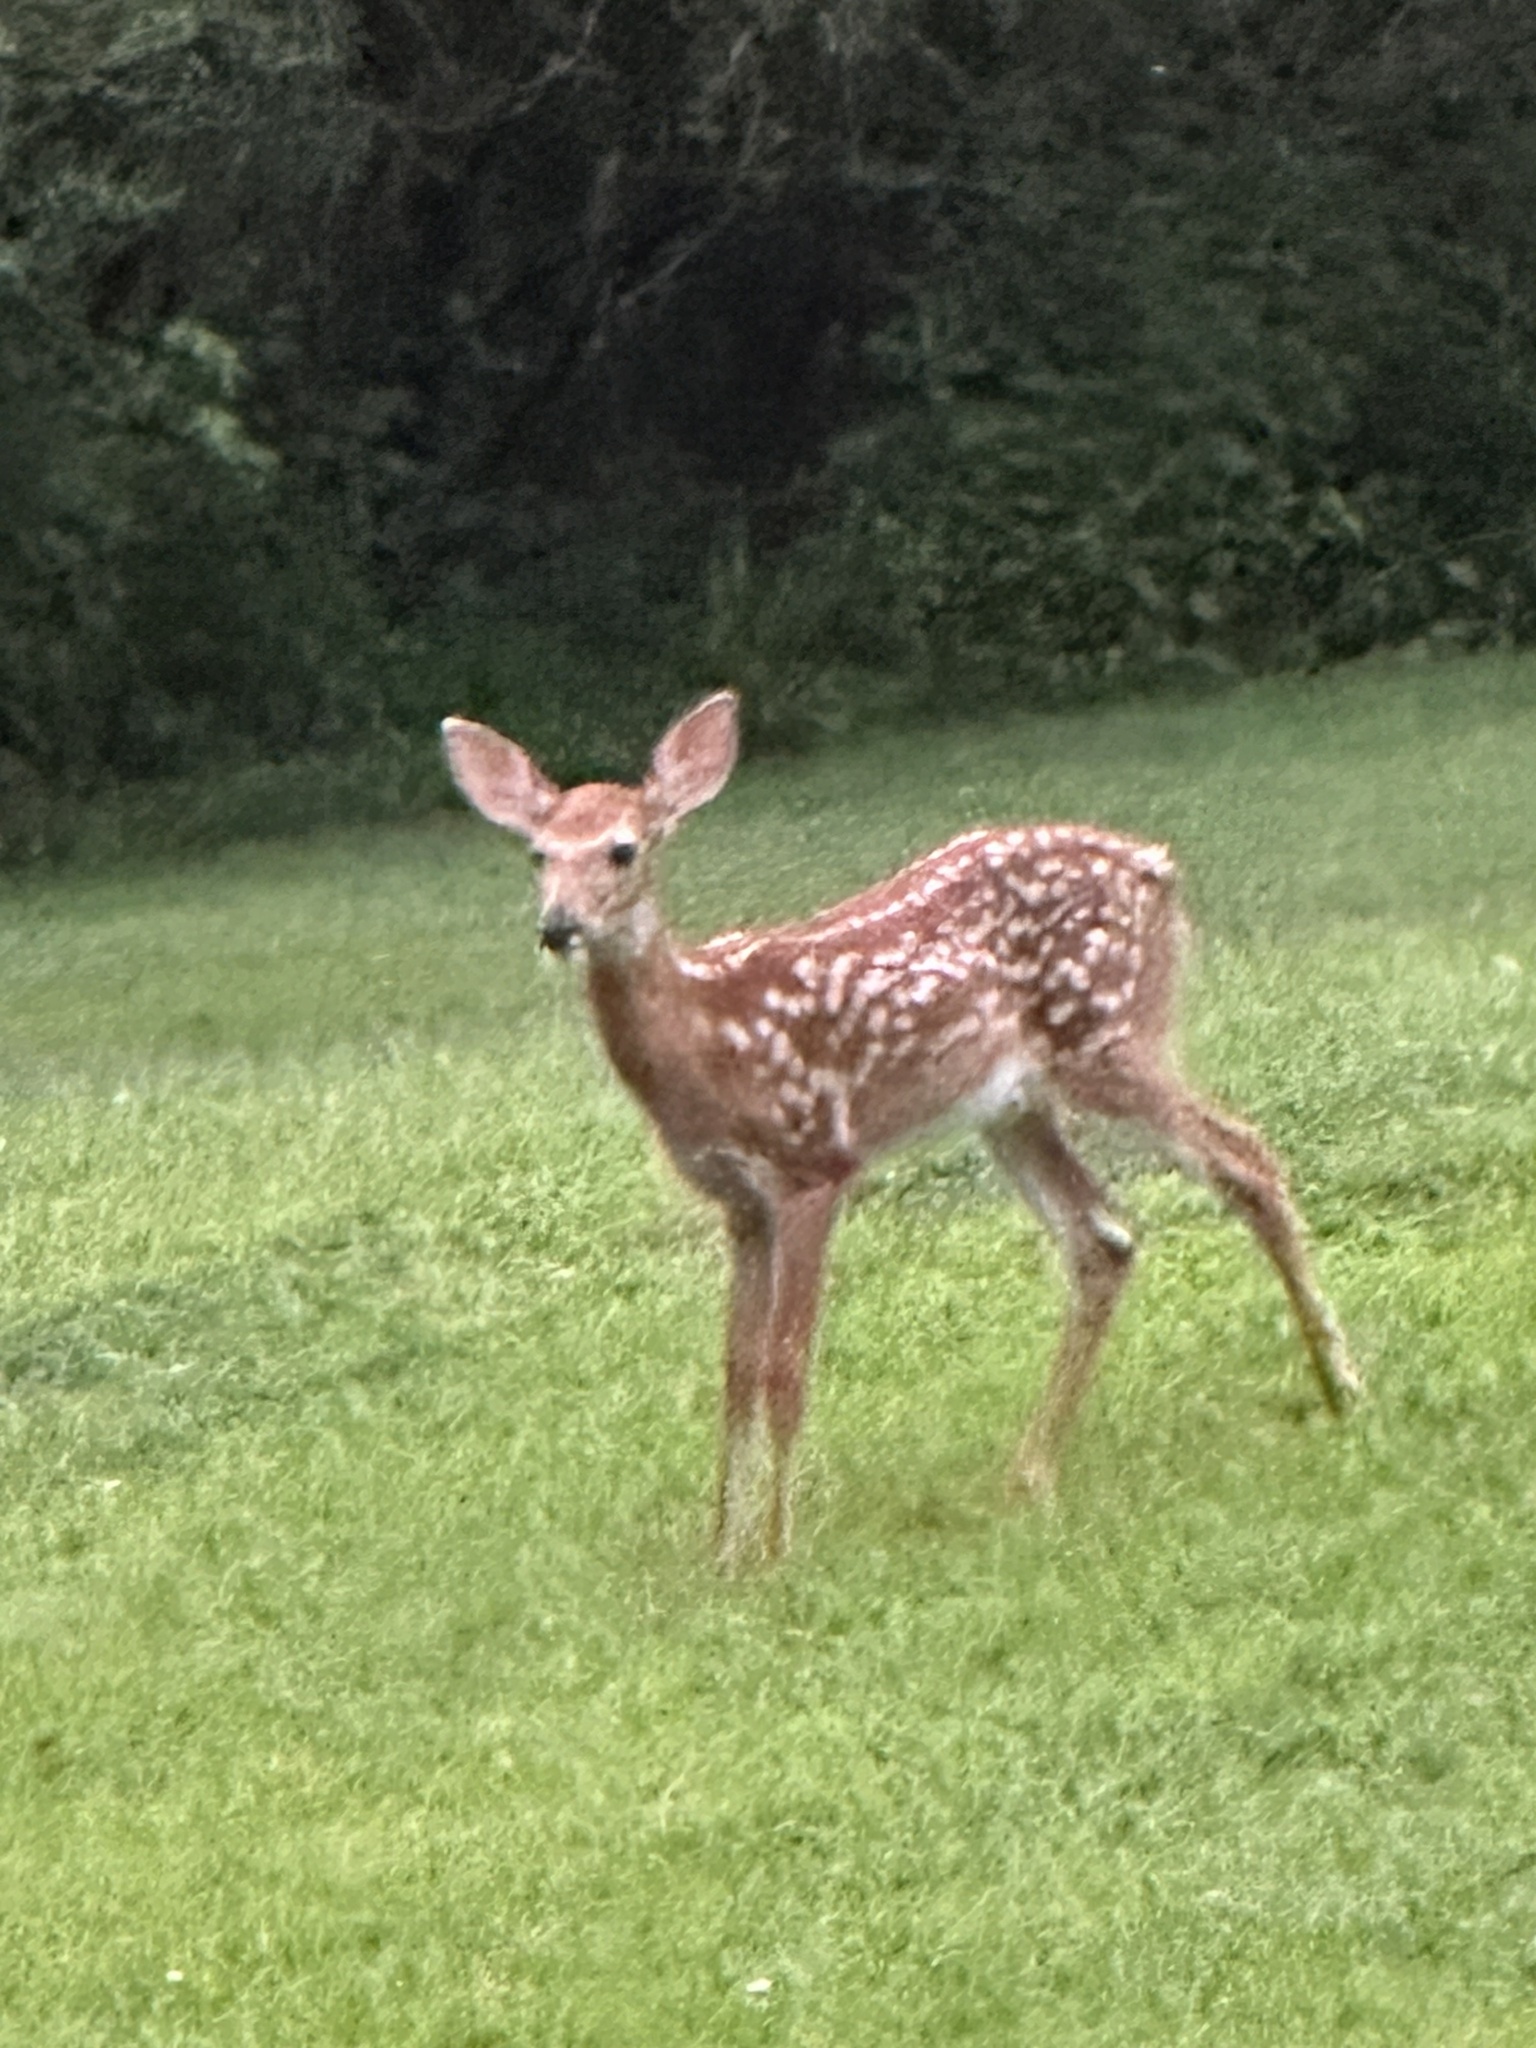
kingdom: Animalia
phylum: Chordata
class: Mammalia
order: Artiodactyla
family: Cervidae
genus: Odocoileus
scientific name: Odocoileus virginianus
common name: White-tailed deer
